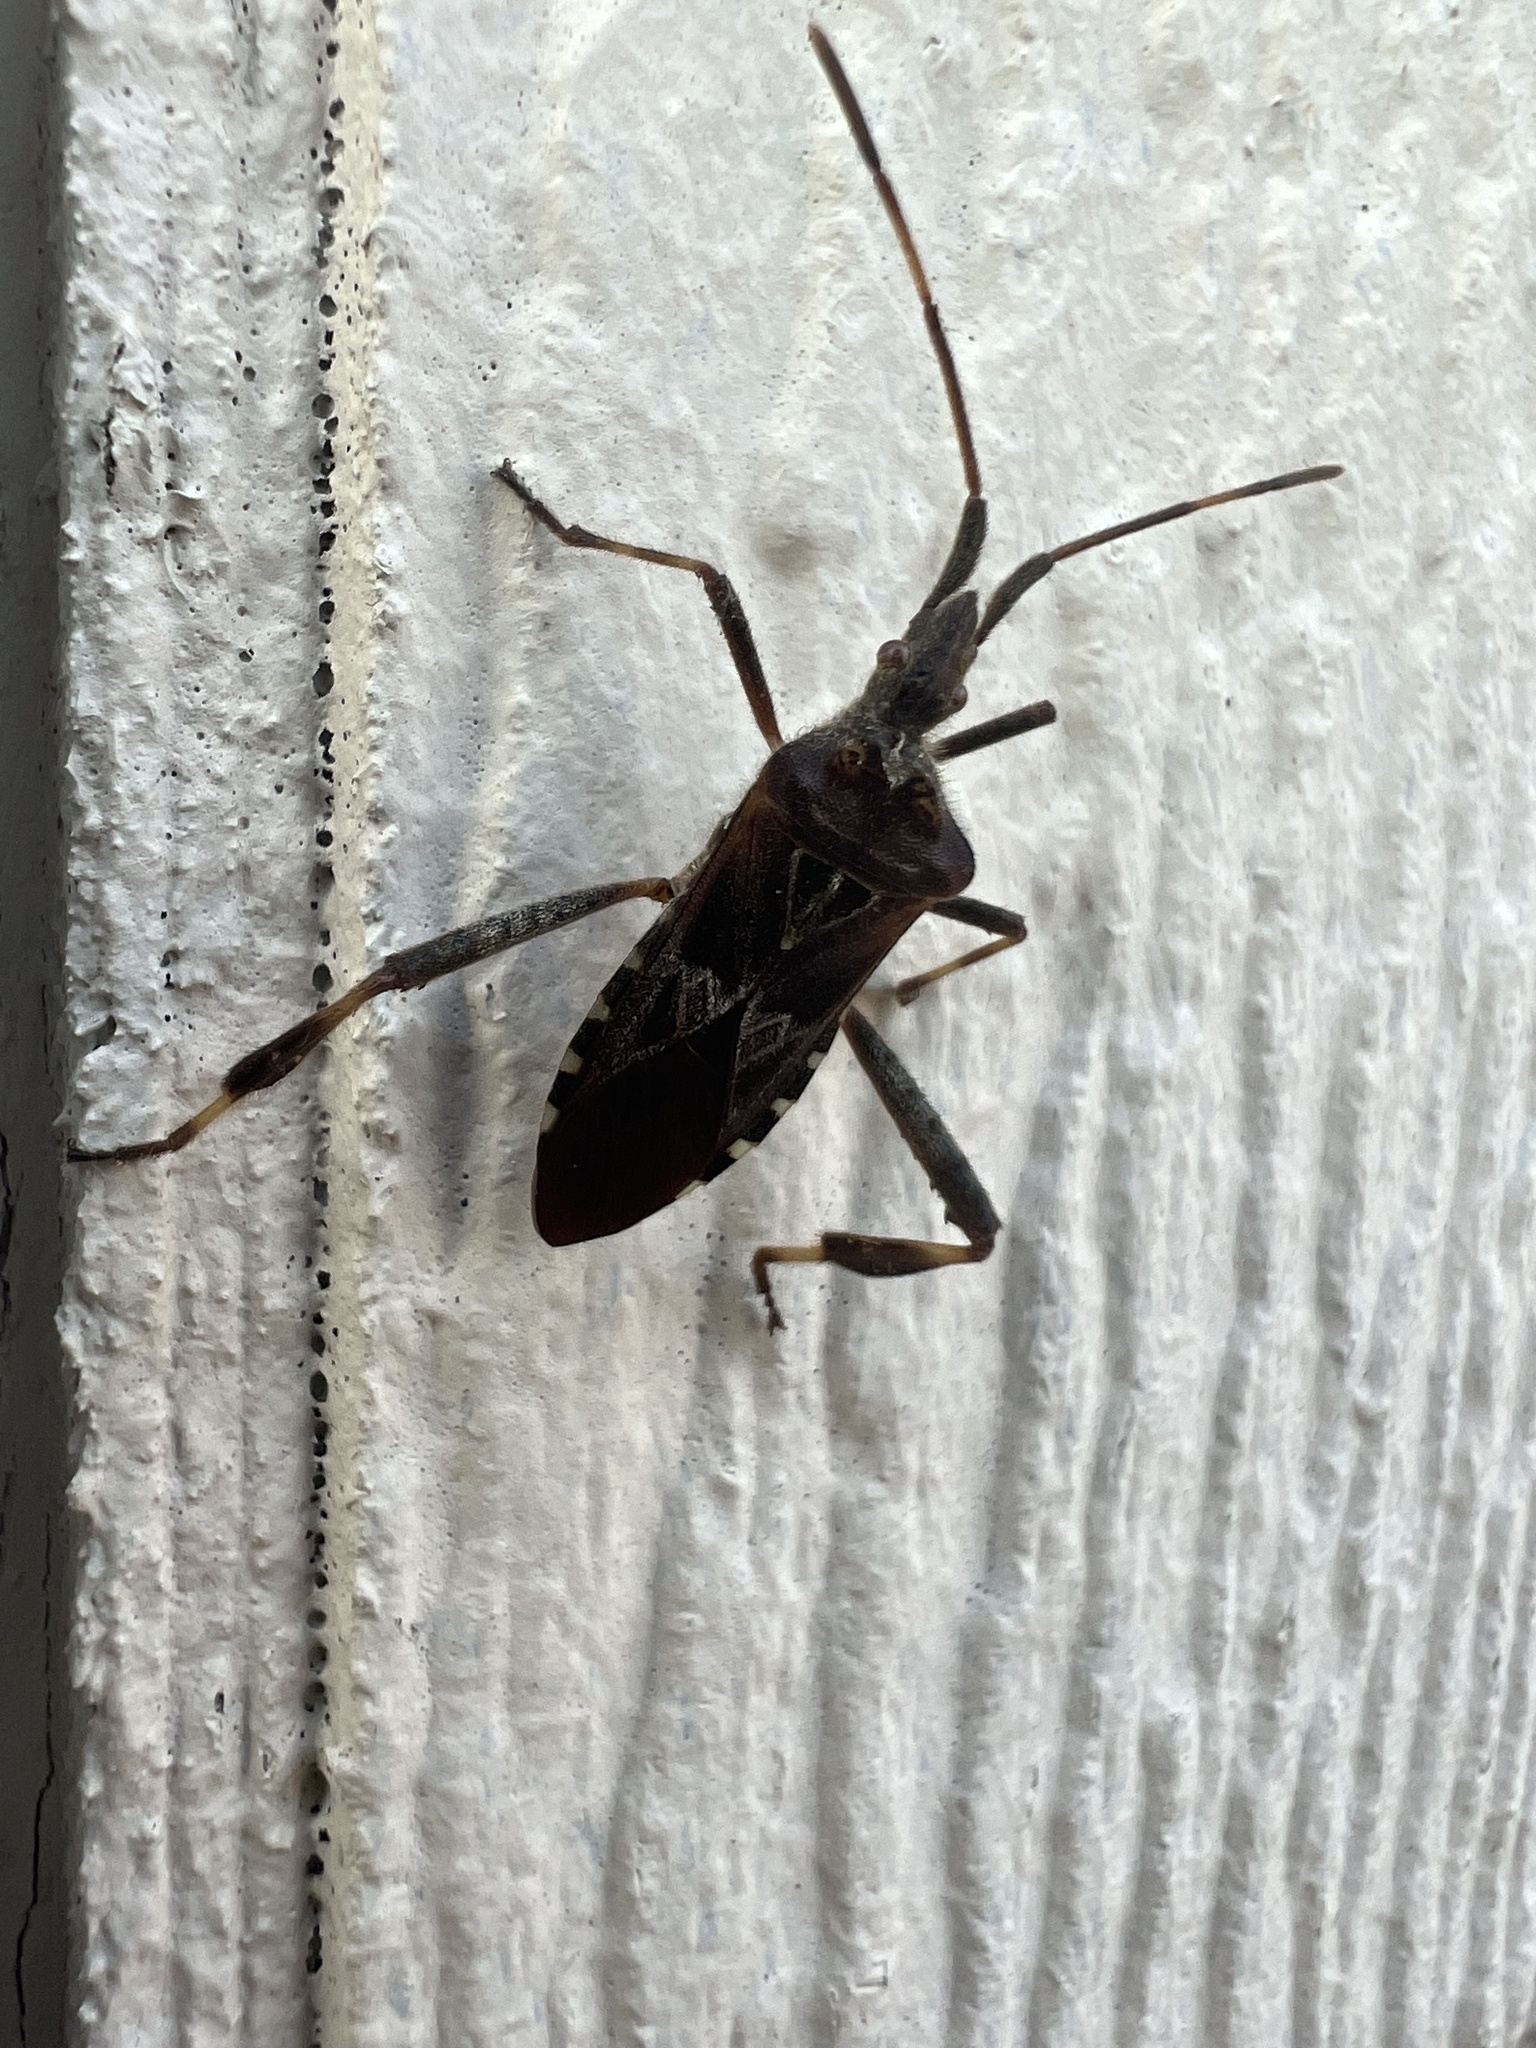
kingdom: Animalia
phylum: Arthropoda
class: Insecta
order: Hemiptera
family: Coreidae
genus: Leptoglossus
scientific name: Leptoglossus occidentalis
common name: Western conifer-seed bug
